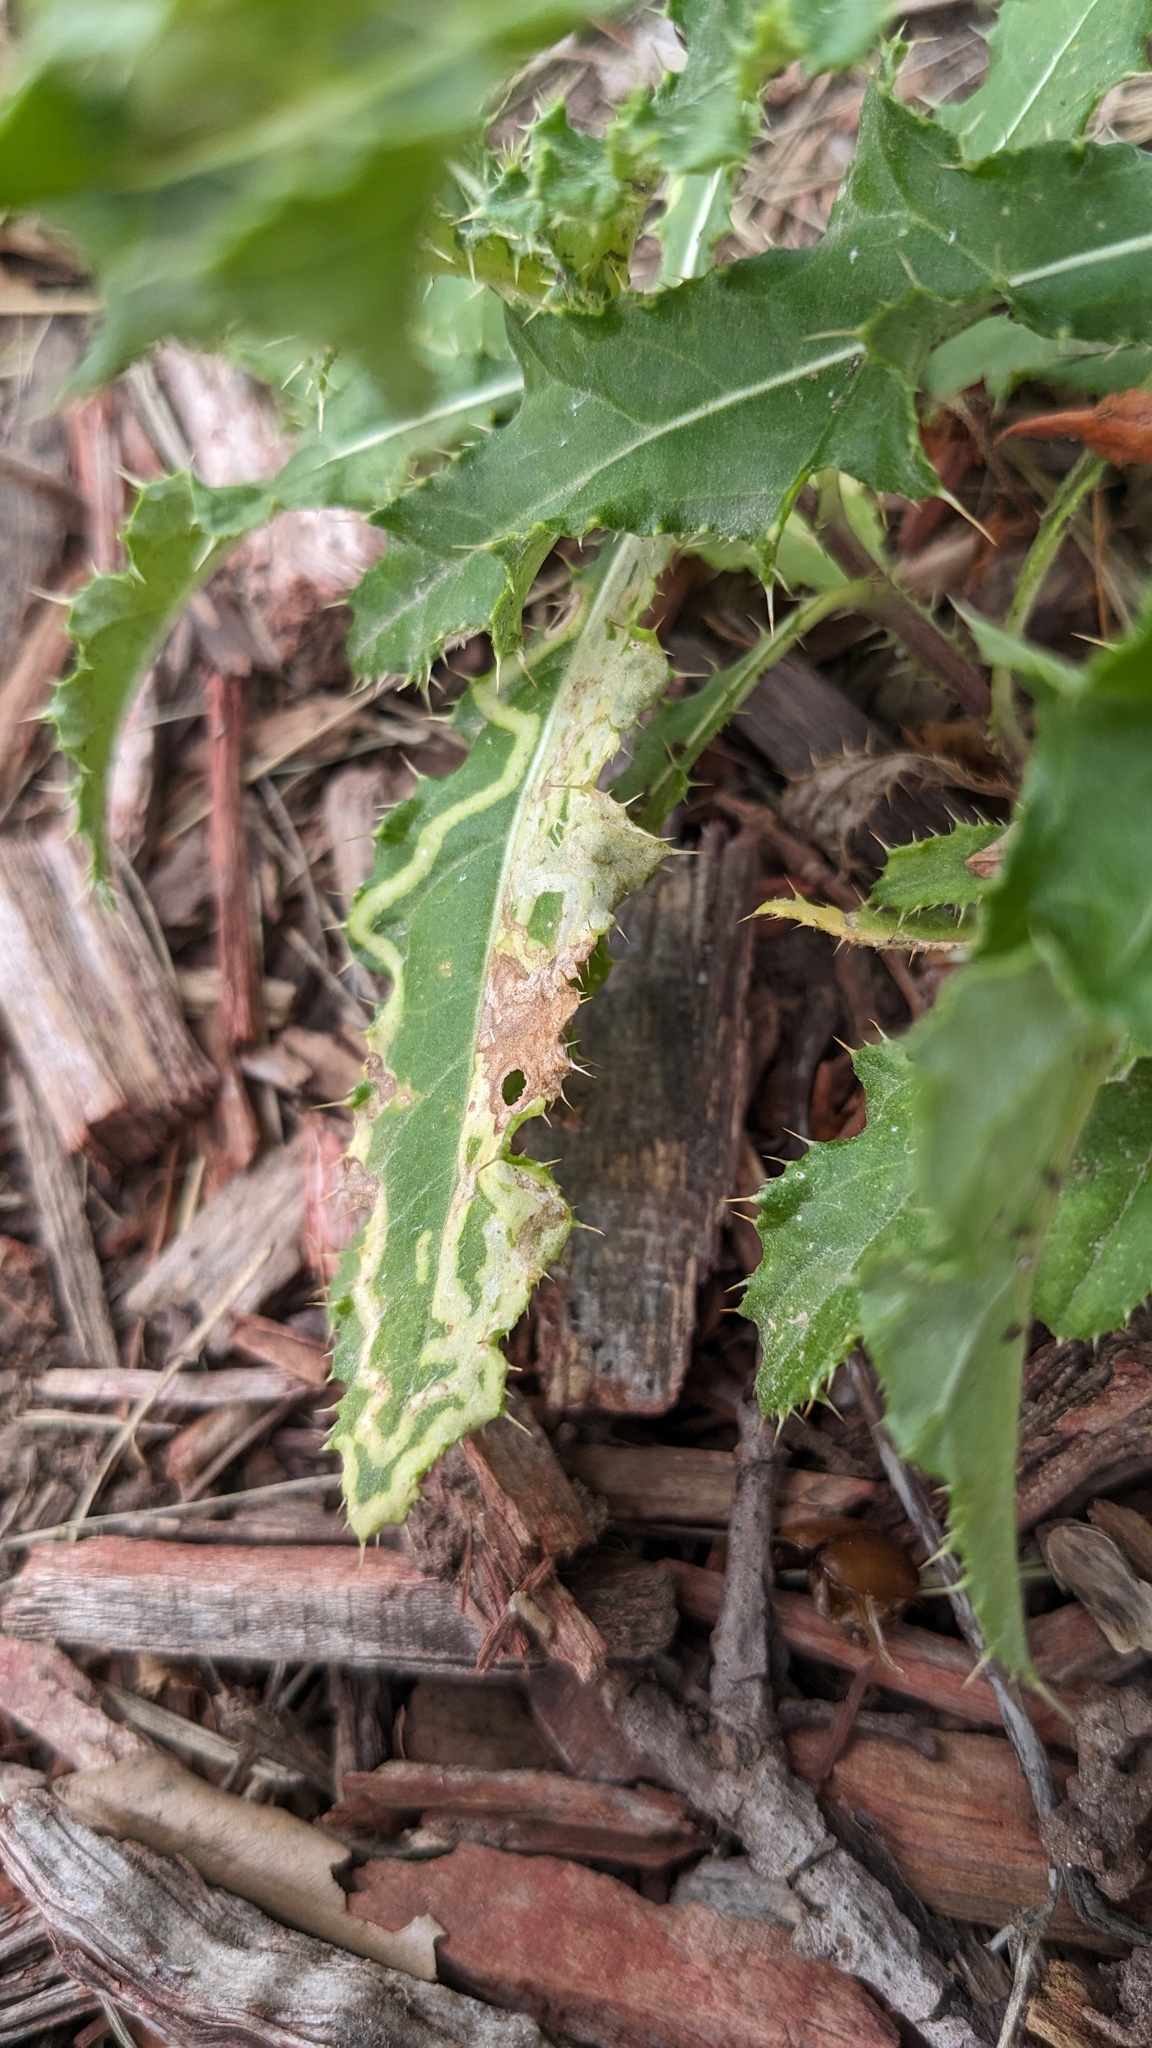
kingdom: Animalia
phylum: Arthropoda
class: Insecta
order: Diptera
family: Agromyzidae
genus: Phytomyza
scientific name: Phytomyza spinaciae
